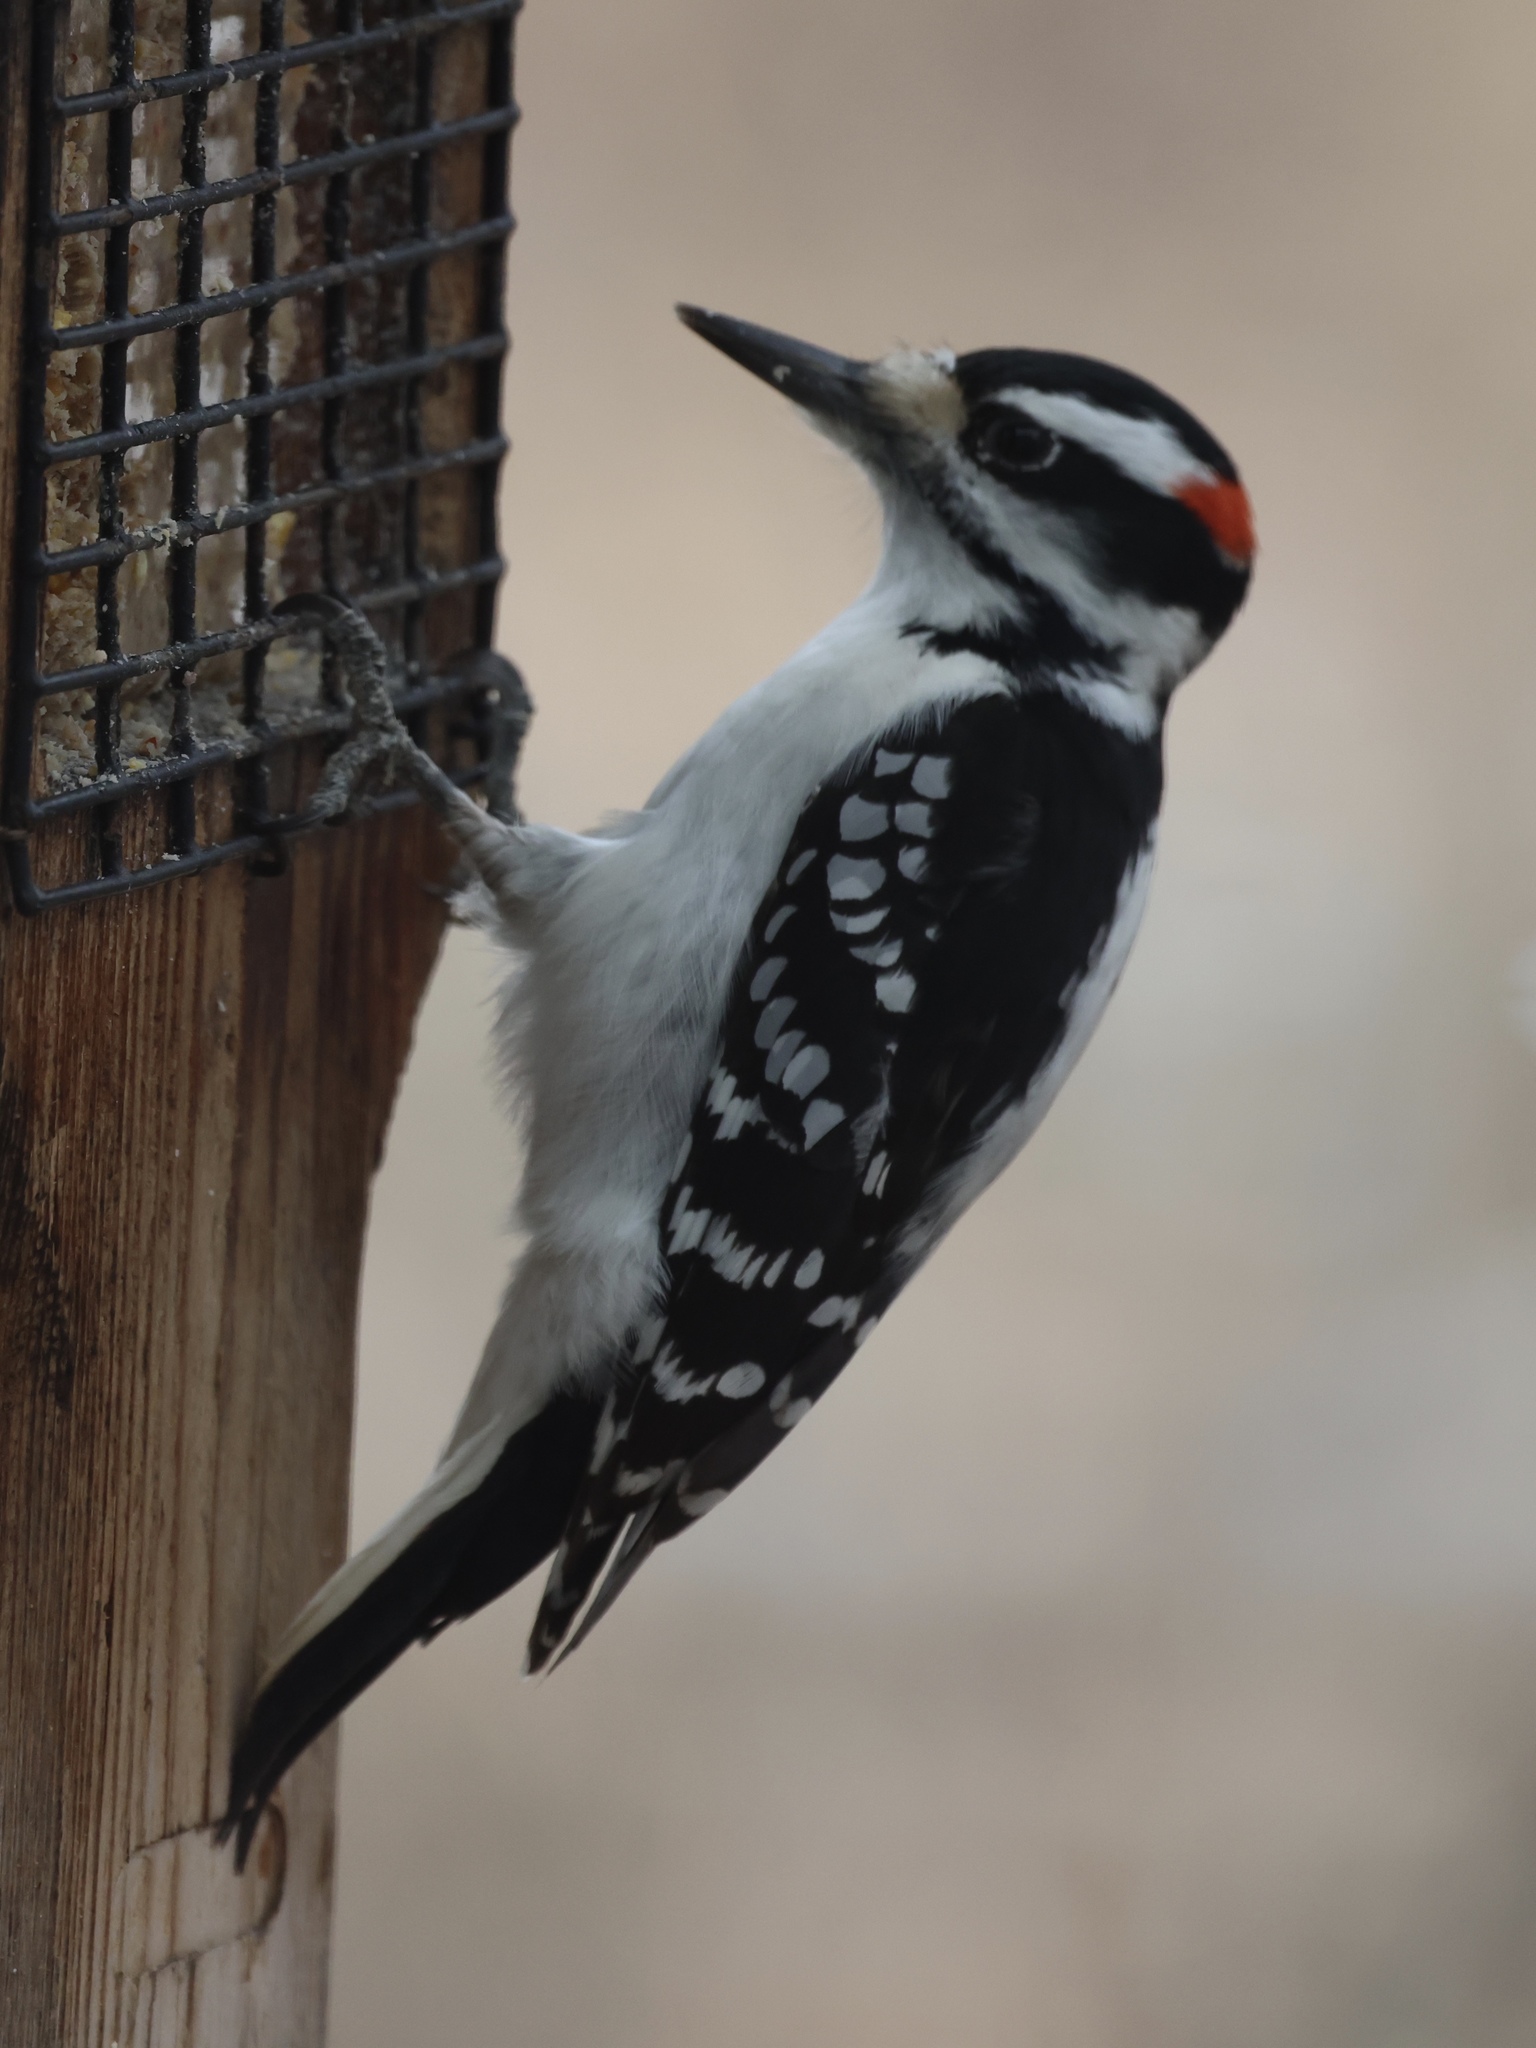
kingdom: Animalia
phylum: Chordata
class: Aves
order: Piciformes
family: Picidae
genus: Leuconotopicus
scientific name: Leuconotopicus villosus
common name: Hairy woodpecker
